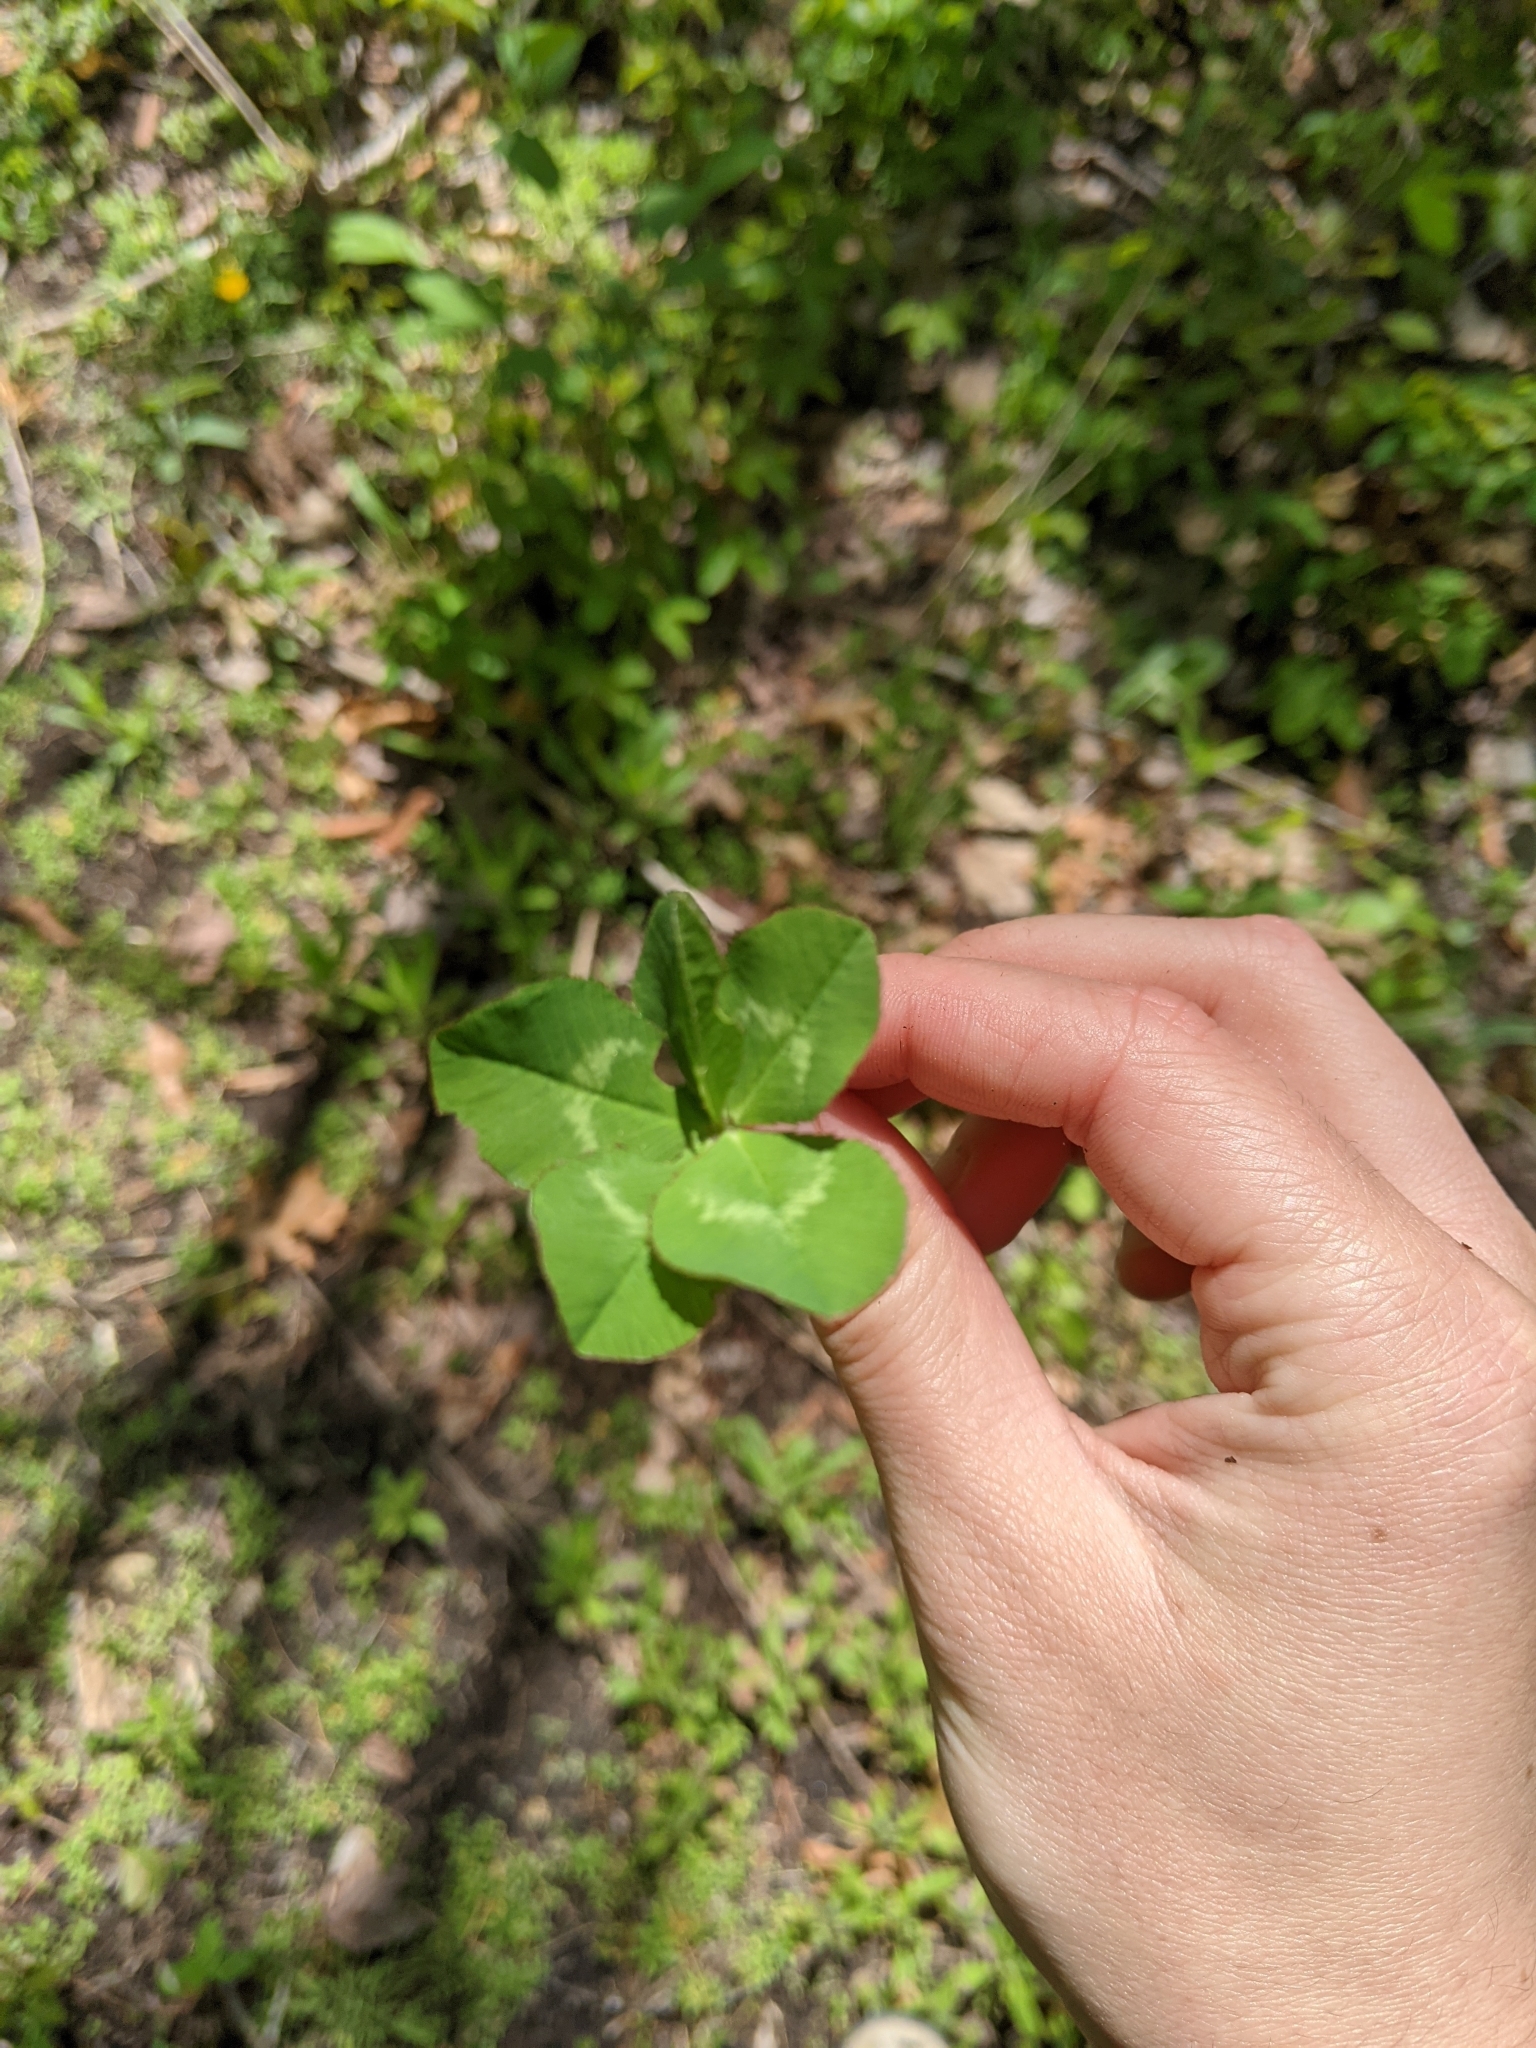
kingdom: Plantae
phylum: Tracheophyta
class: Magnoliopsida
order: Fabales
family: Fabaceae
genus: Trifolium
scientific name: Trifolium repens
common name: White clover
